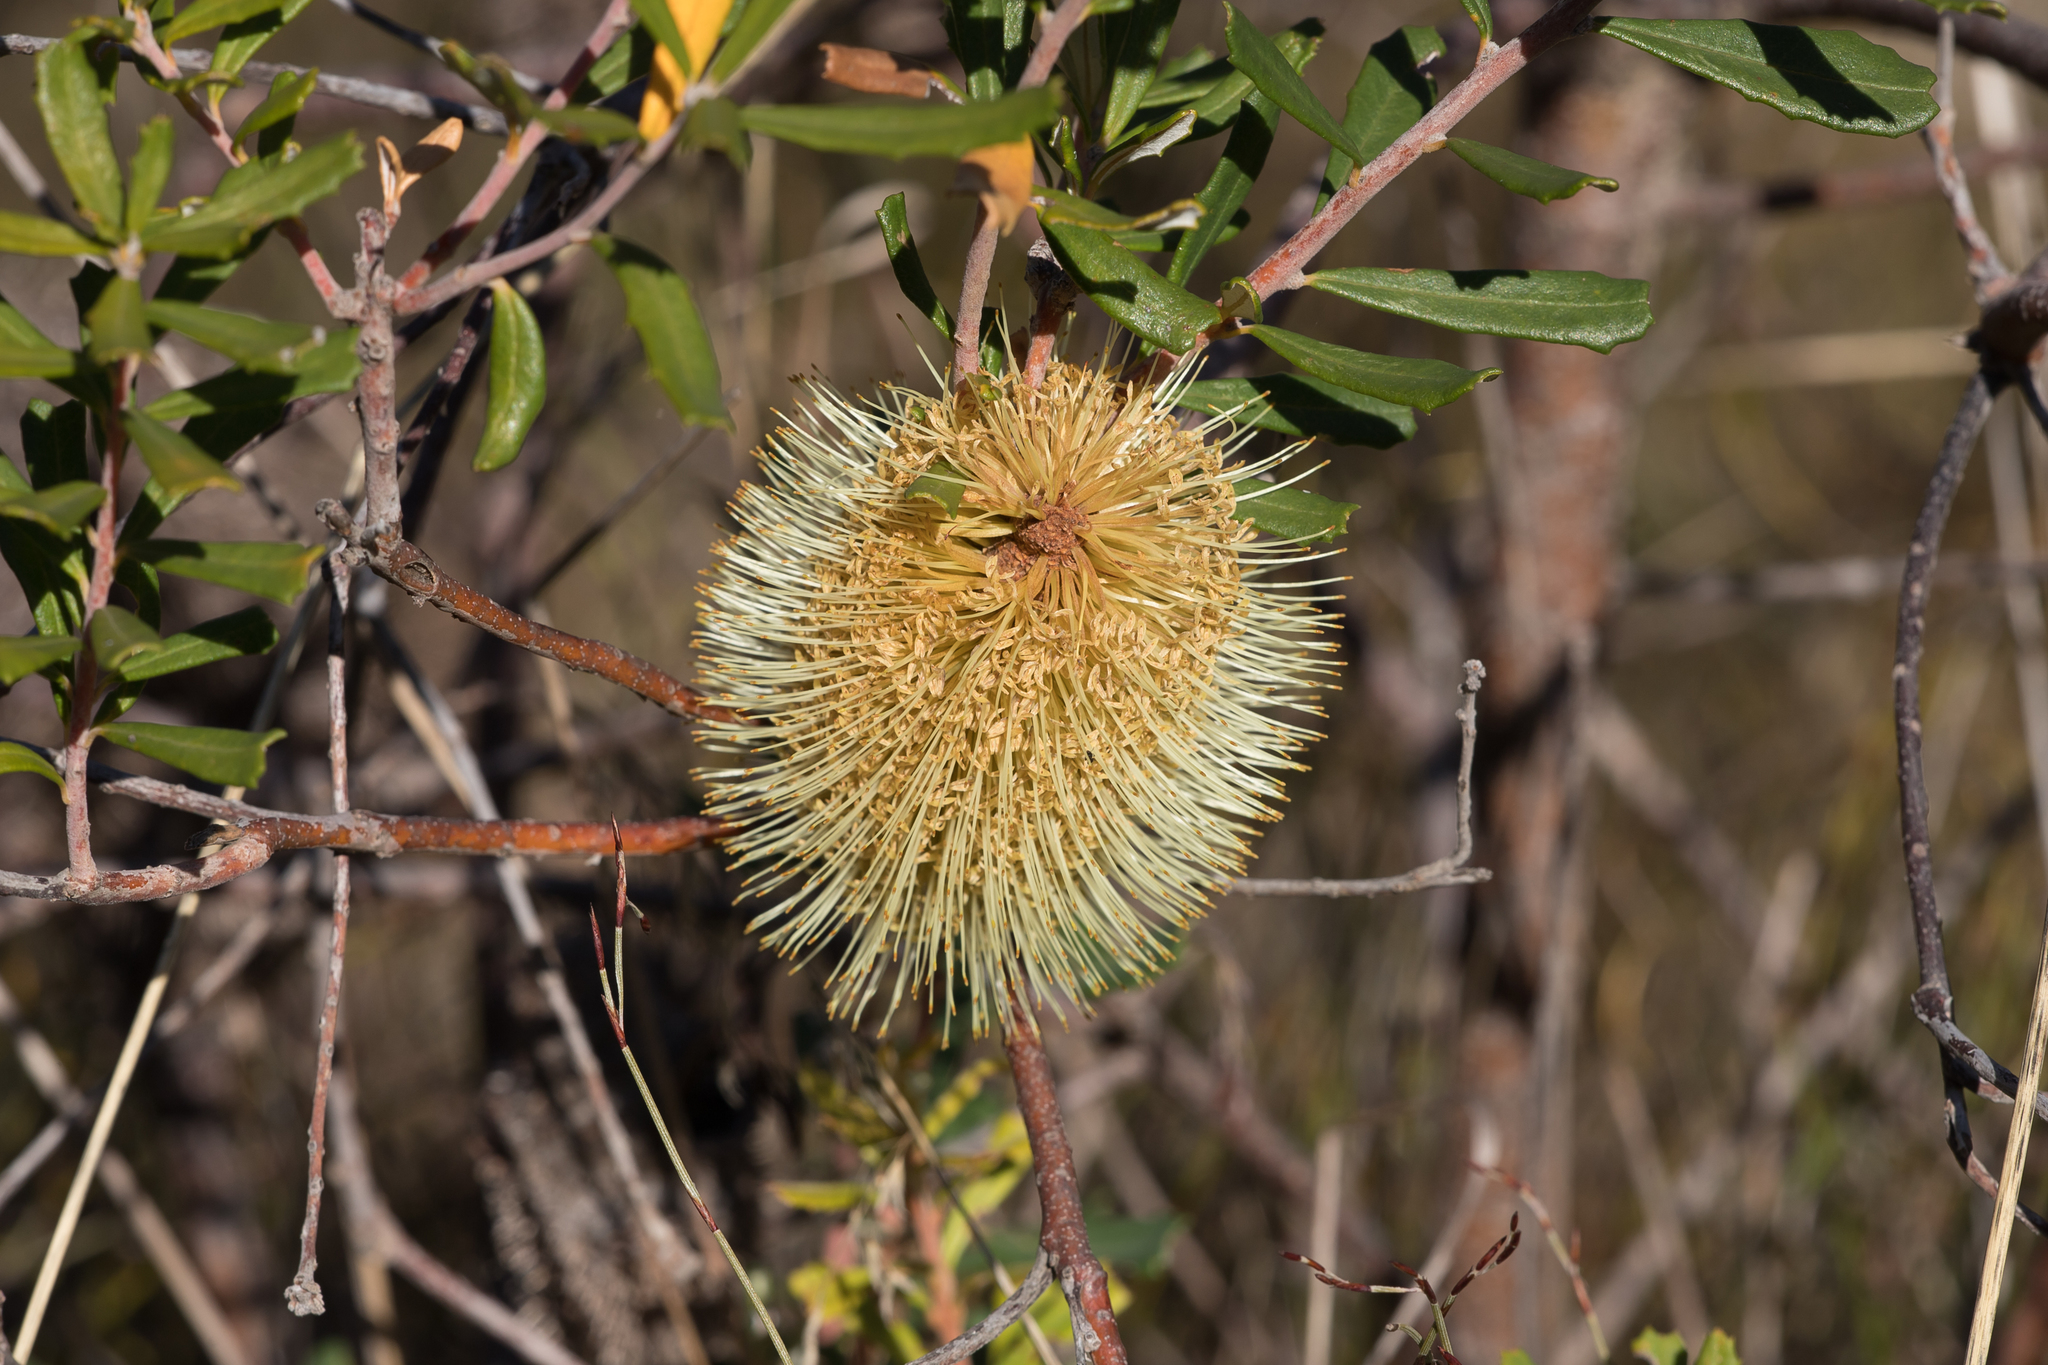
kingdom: Plantae
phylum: Tracheophyta
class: Magnoliopsida
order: Proteales
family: Proteaceae
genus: Banksia
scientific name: Banksia marginata
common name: Silver banksia
